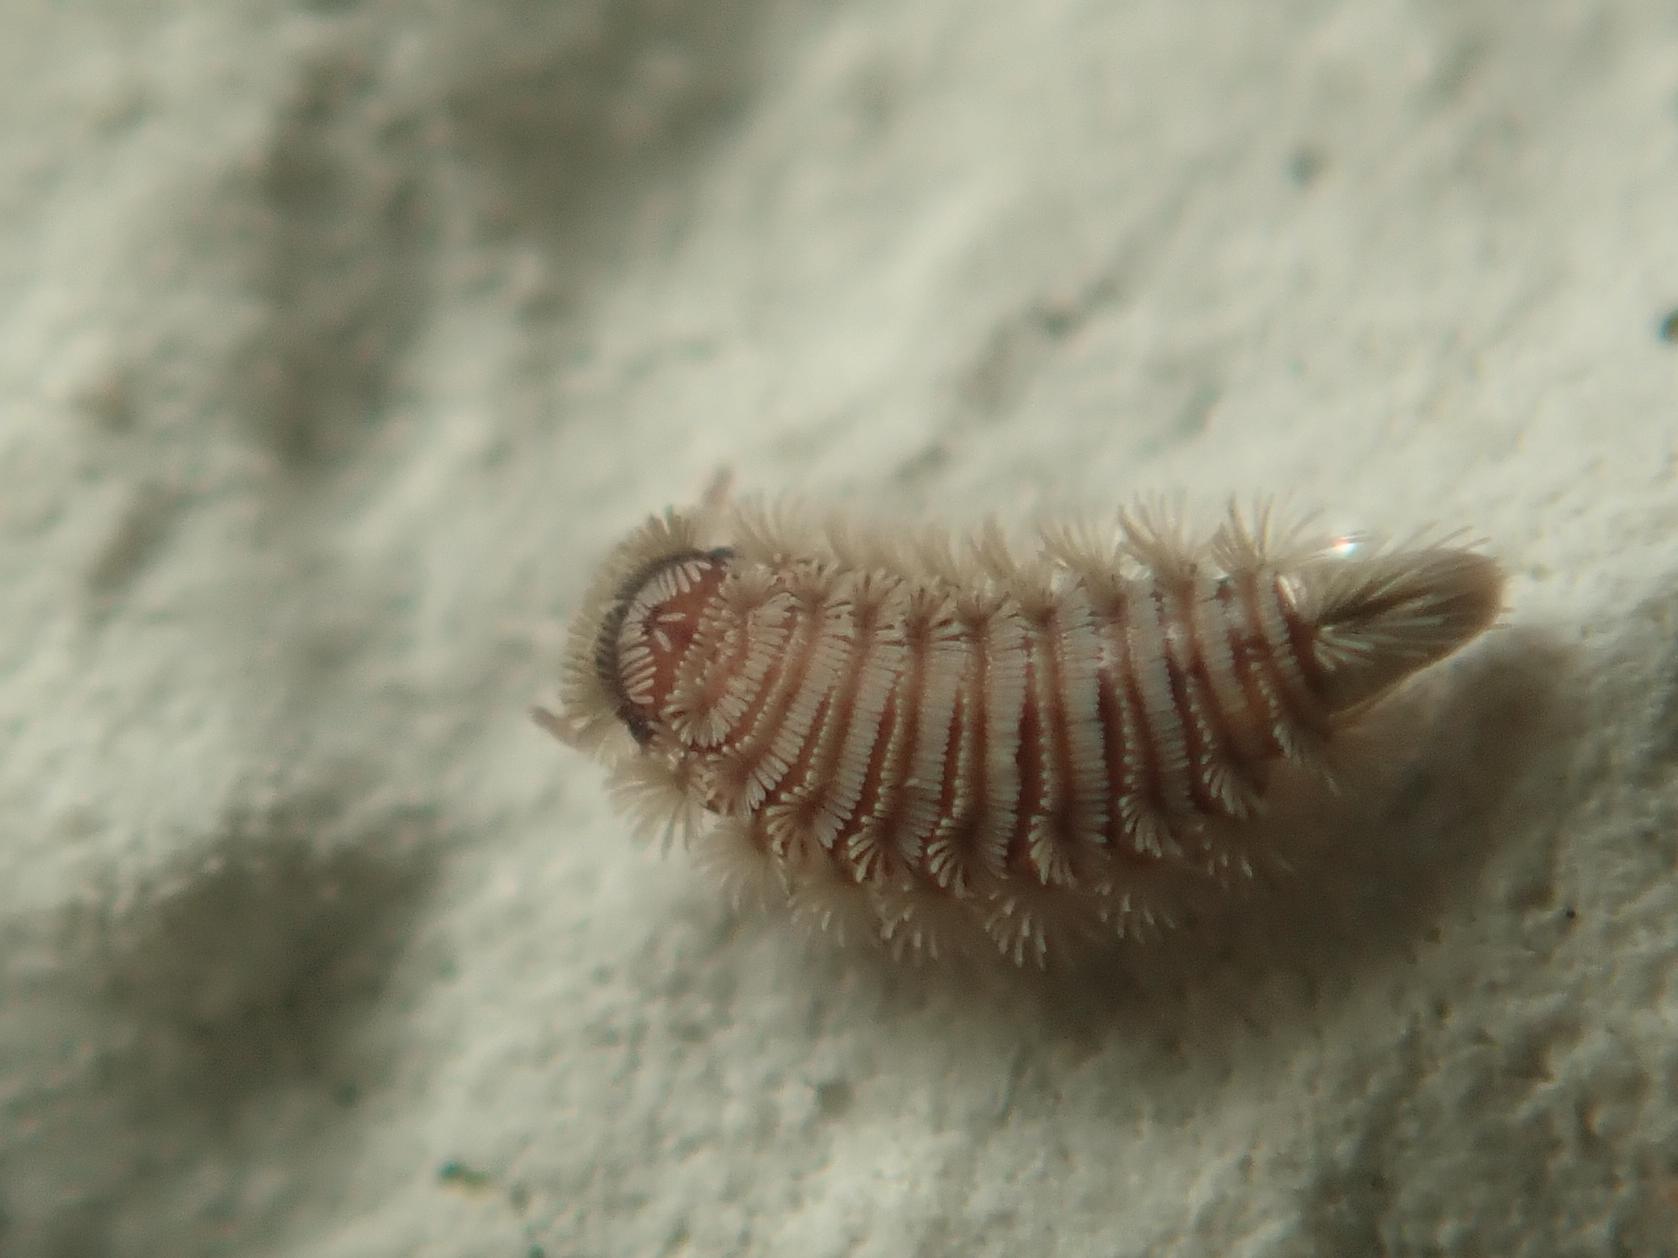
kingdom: Animalia
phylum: Arthropoda
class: Diplopoda
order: Polyxenida
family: Polyxenidae
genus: Polyxenus
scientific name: Polyxenus lagurus
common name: Bristly millipede
